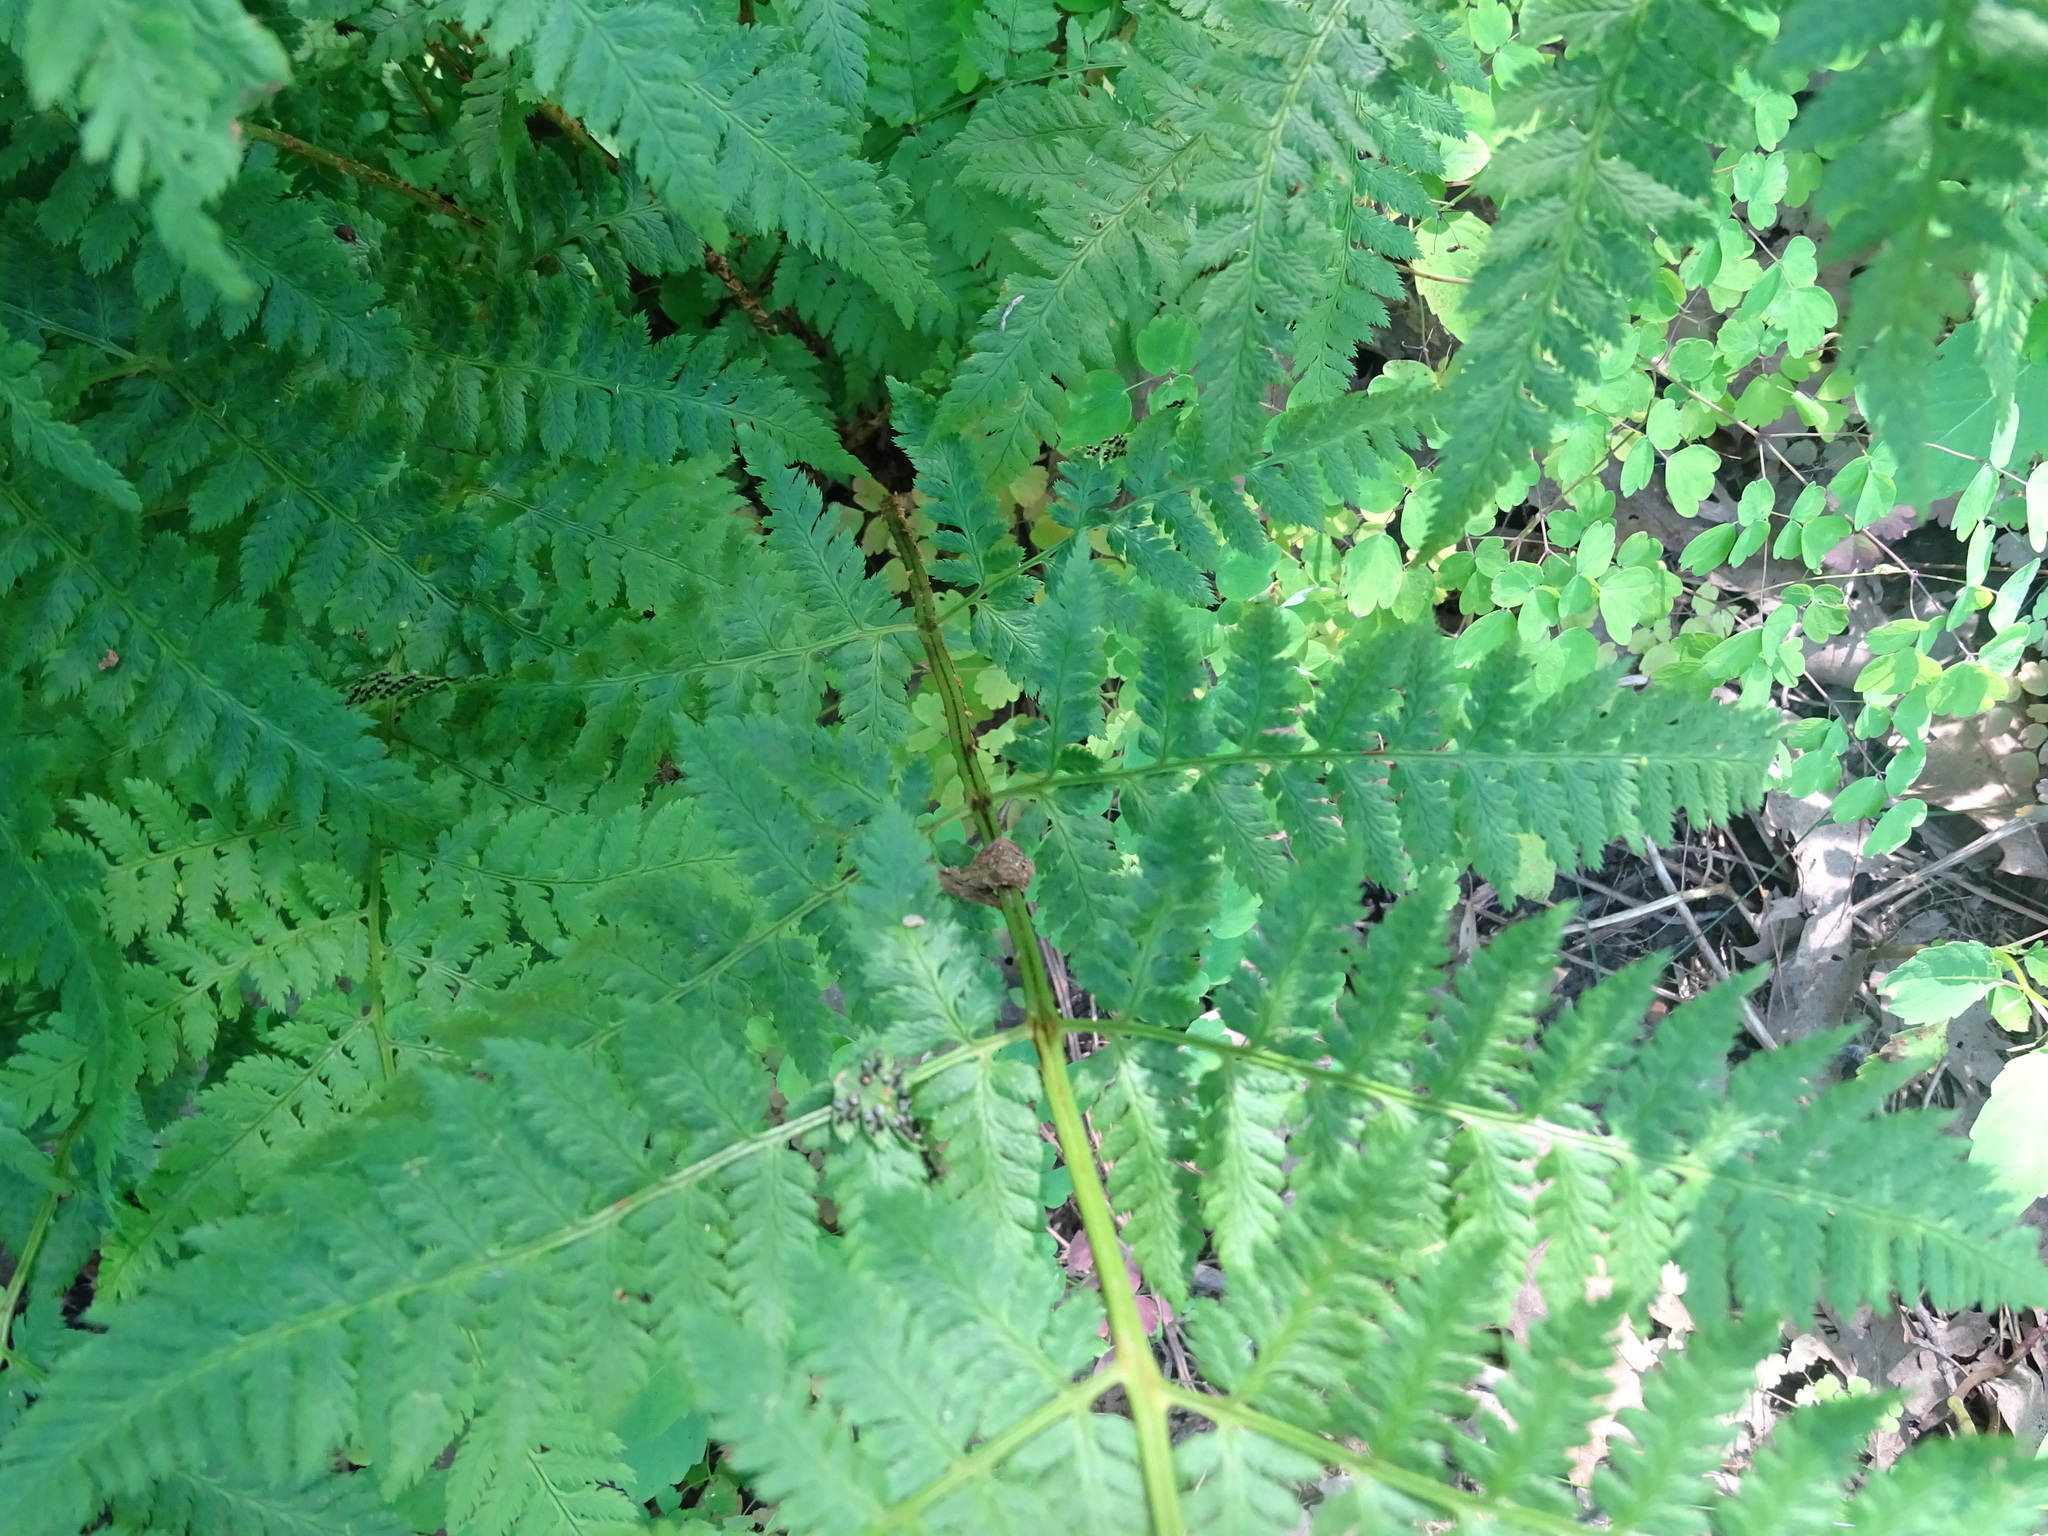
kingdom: Plantae
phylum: Tracheophyta
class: Polypodiopsida
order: Polypodiales
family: Dryopteridaceae
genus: Dryopteris
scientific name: Dryopteris carthusiana
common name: Narrow buckler-fern
